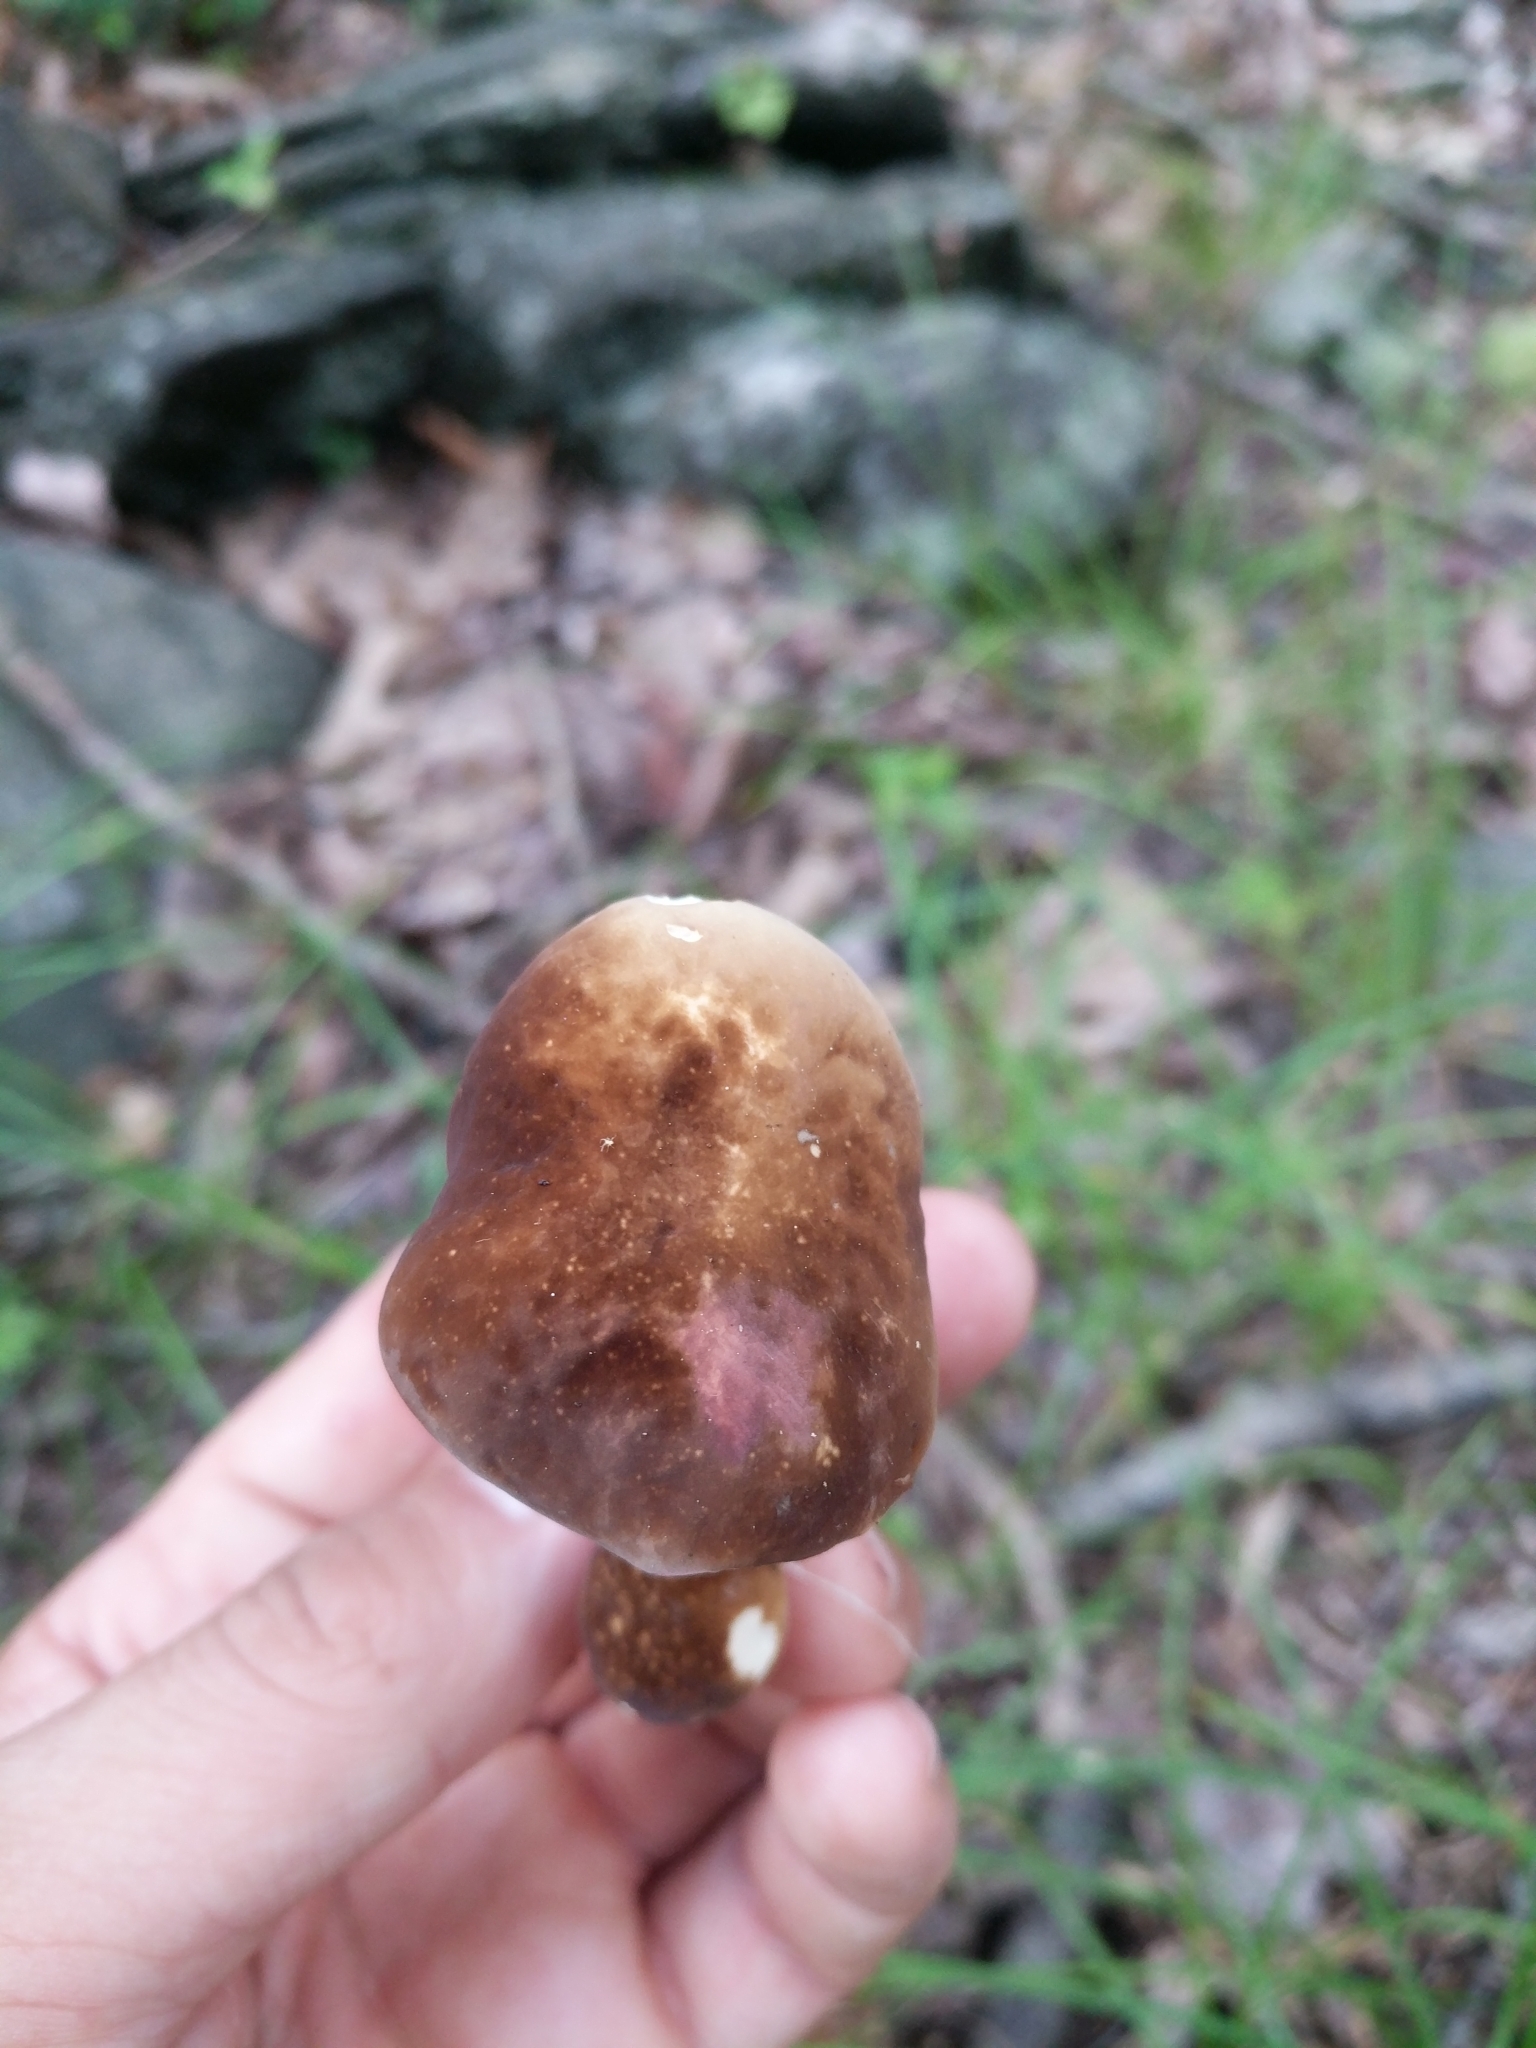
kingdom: Fungi
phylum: Basidiomycota
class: Agaricomycetes
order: Boletales
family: Boletaceae
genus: Xanthoconium
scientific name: Xanthoconium affine
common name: Spotted bolete
